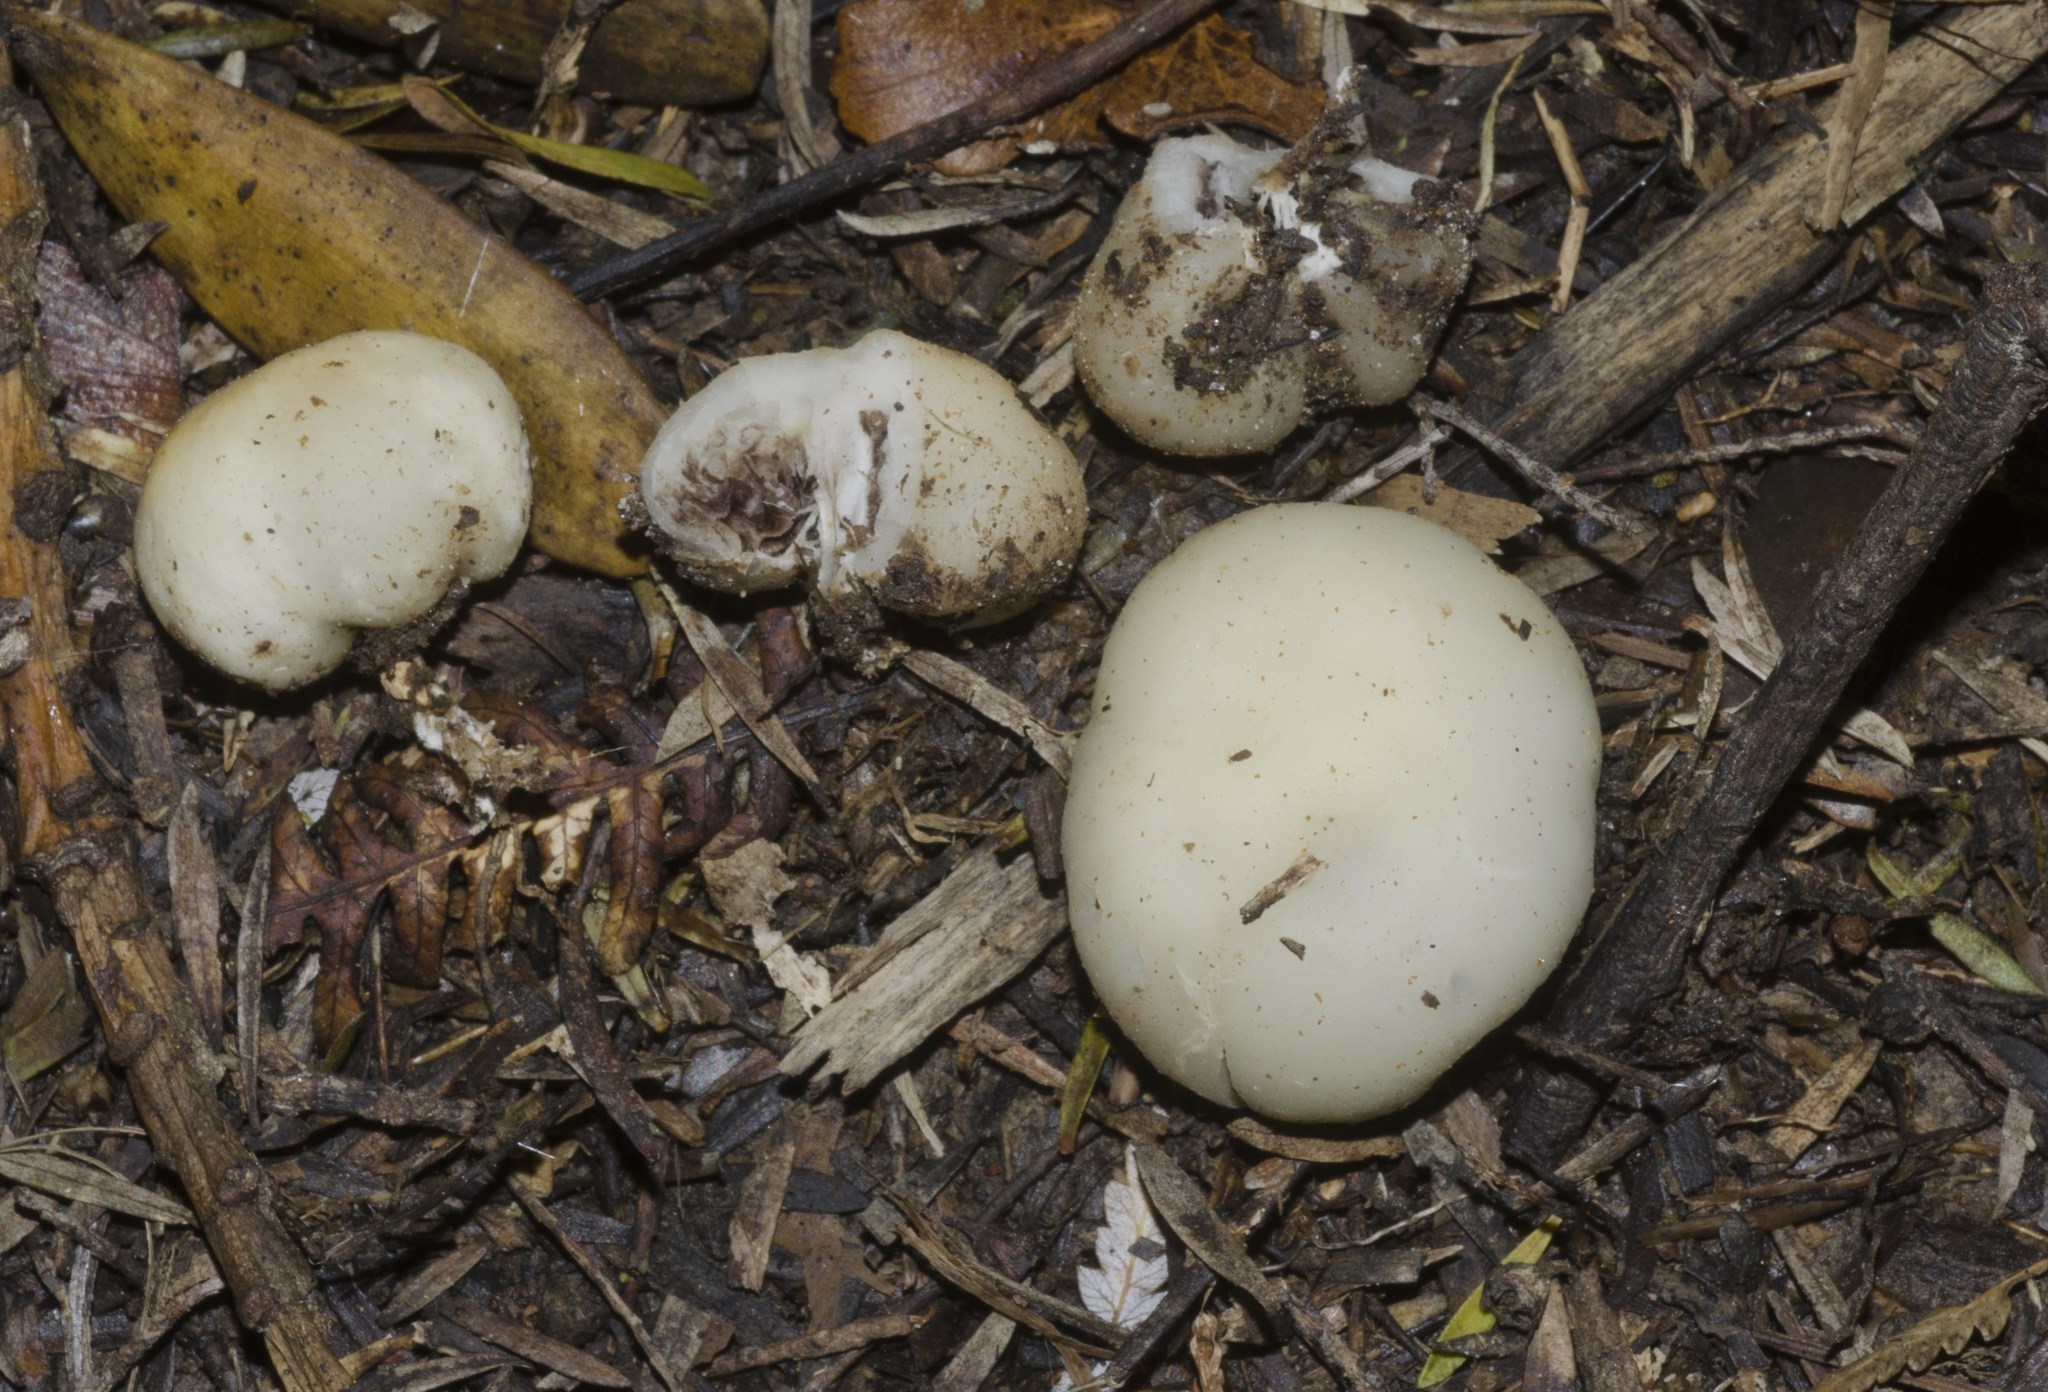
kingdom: Fungi
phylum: Basidiomycota
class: Agaricomycetes
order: Agaricales
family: Hymenogastraceae
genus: Psilocybe
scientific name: Psilocybe weraroa
